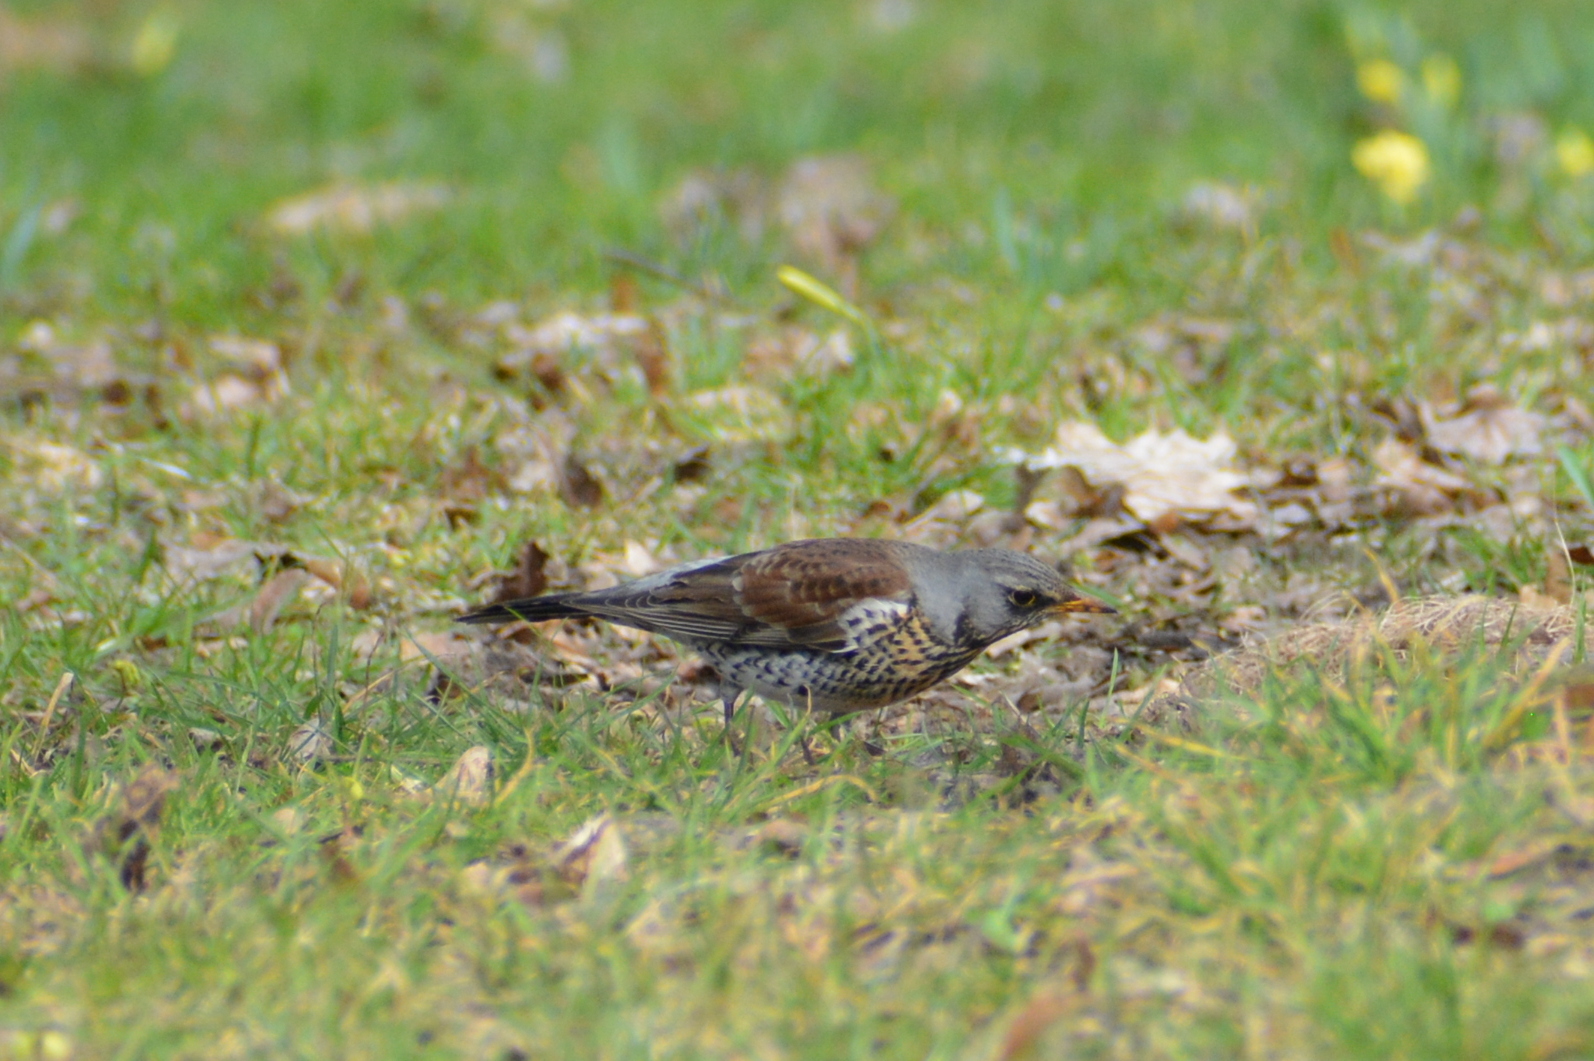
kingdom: Animalia
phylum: Chordata
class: Aves
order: Passeriformes
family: Turdidae
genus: Turdus
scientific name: Turdus pilaris
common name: Fieldfare
